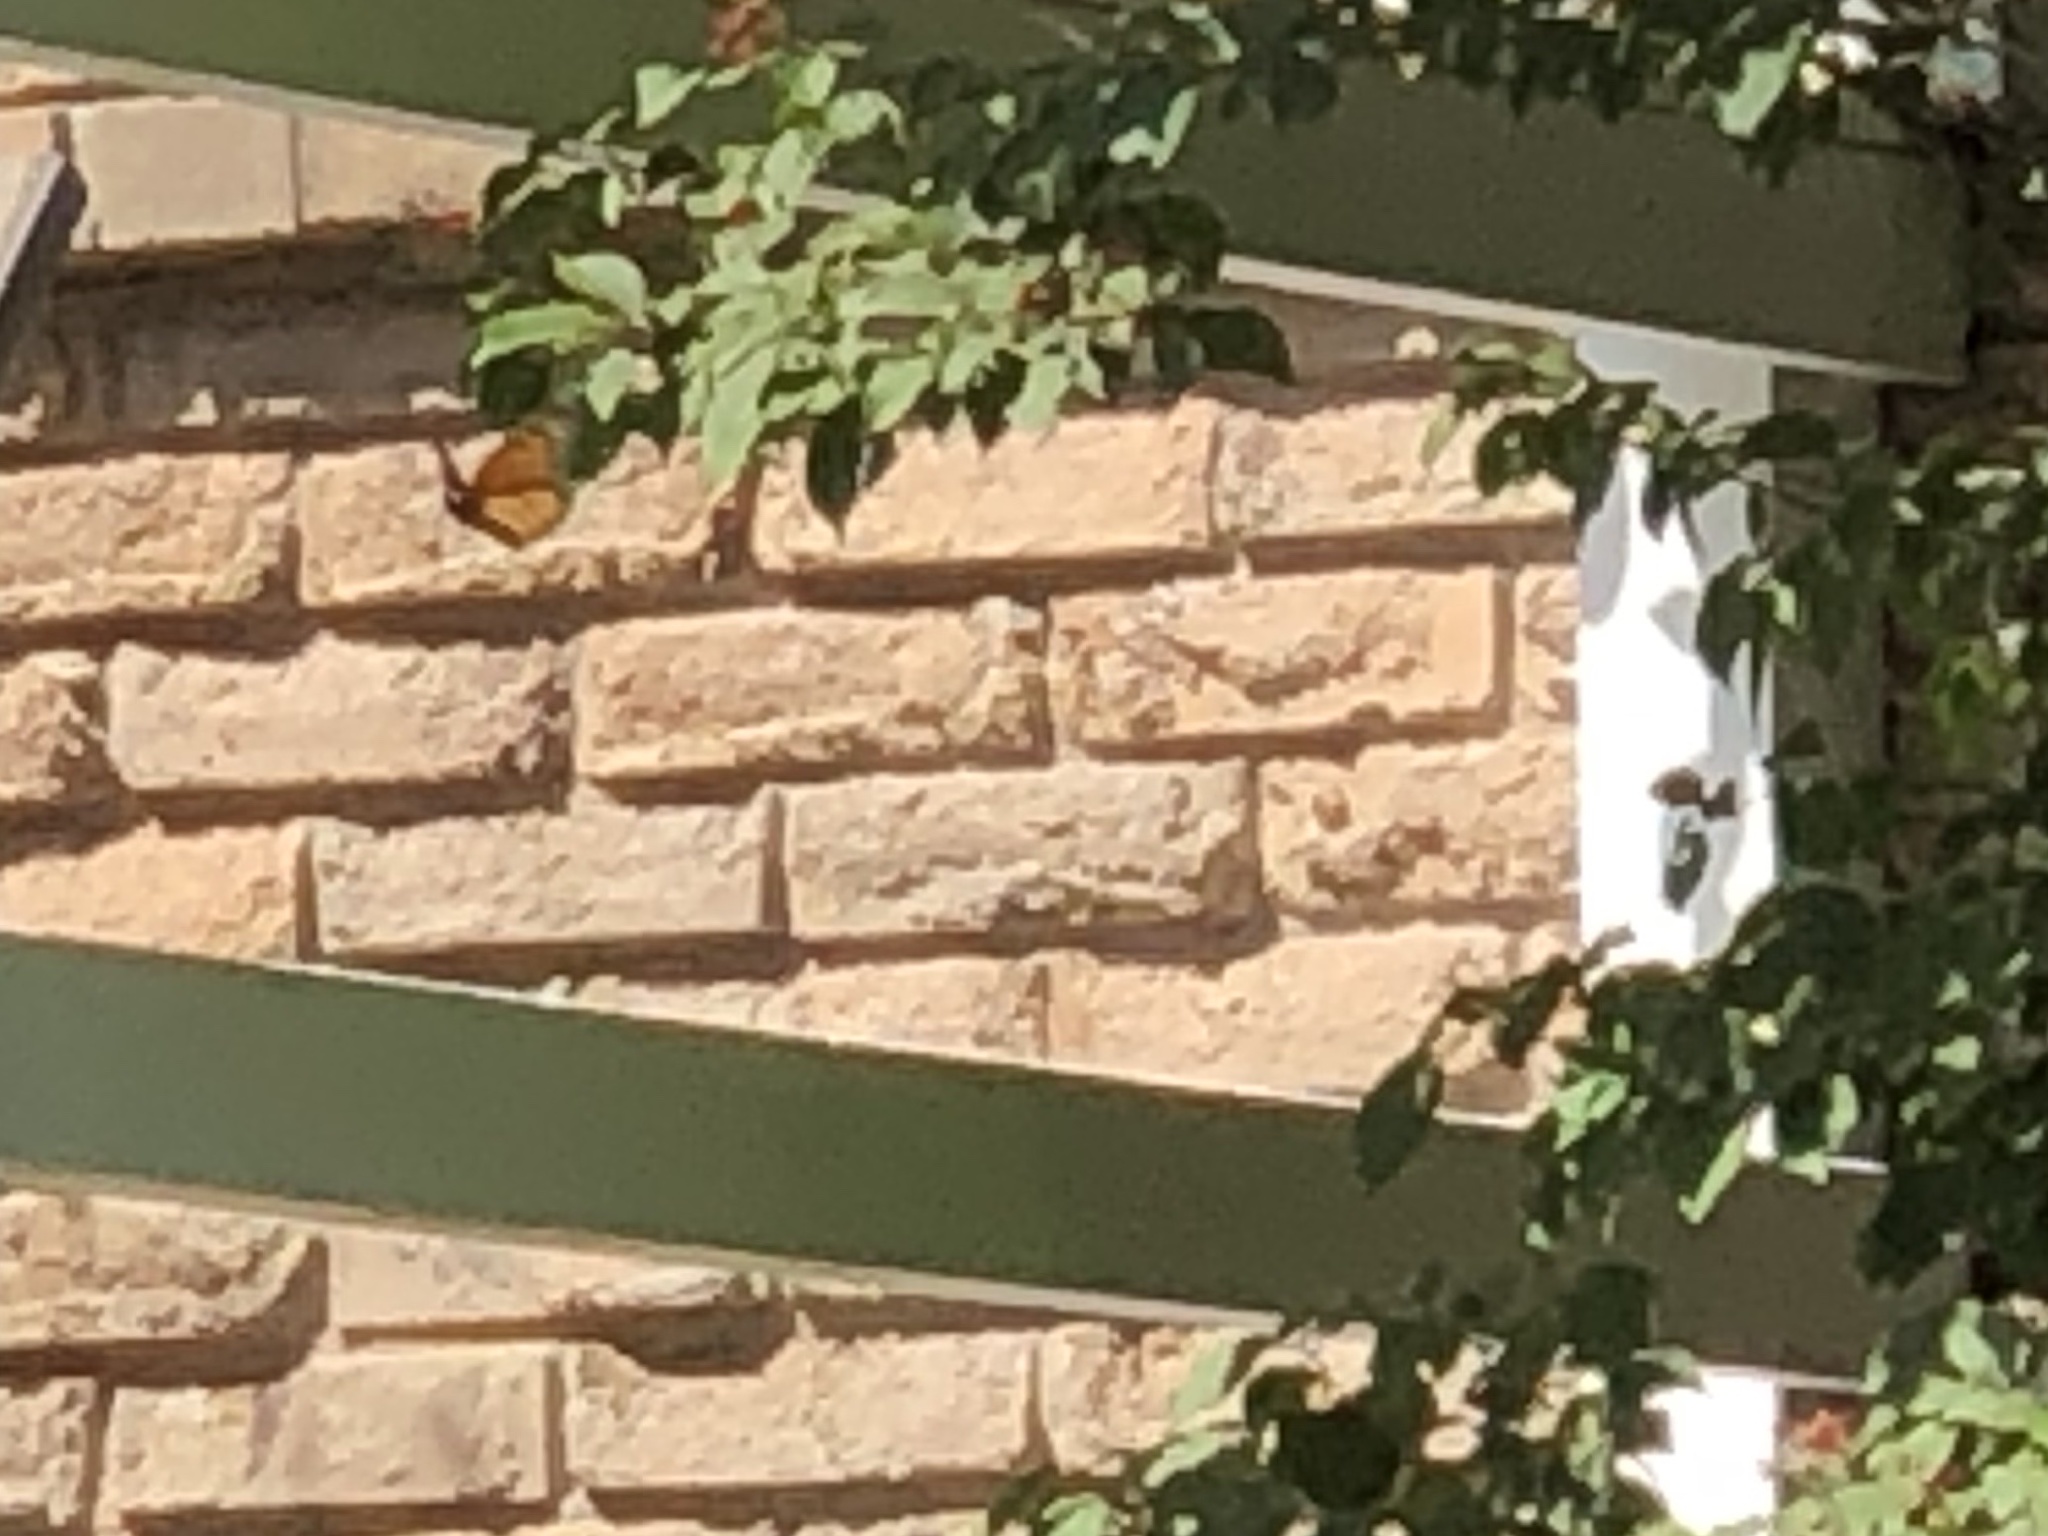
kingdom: Animalia
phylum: Arthropoda
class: Insecta
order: Lepidoptera
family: Nymphalidae
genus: Danaus
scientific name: Danaus plexippus
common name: Monarch
